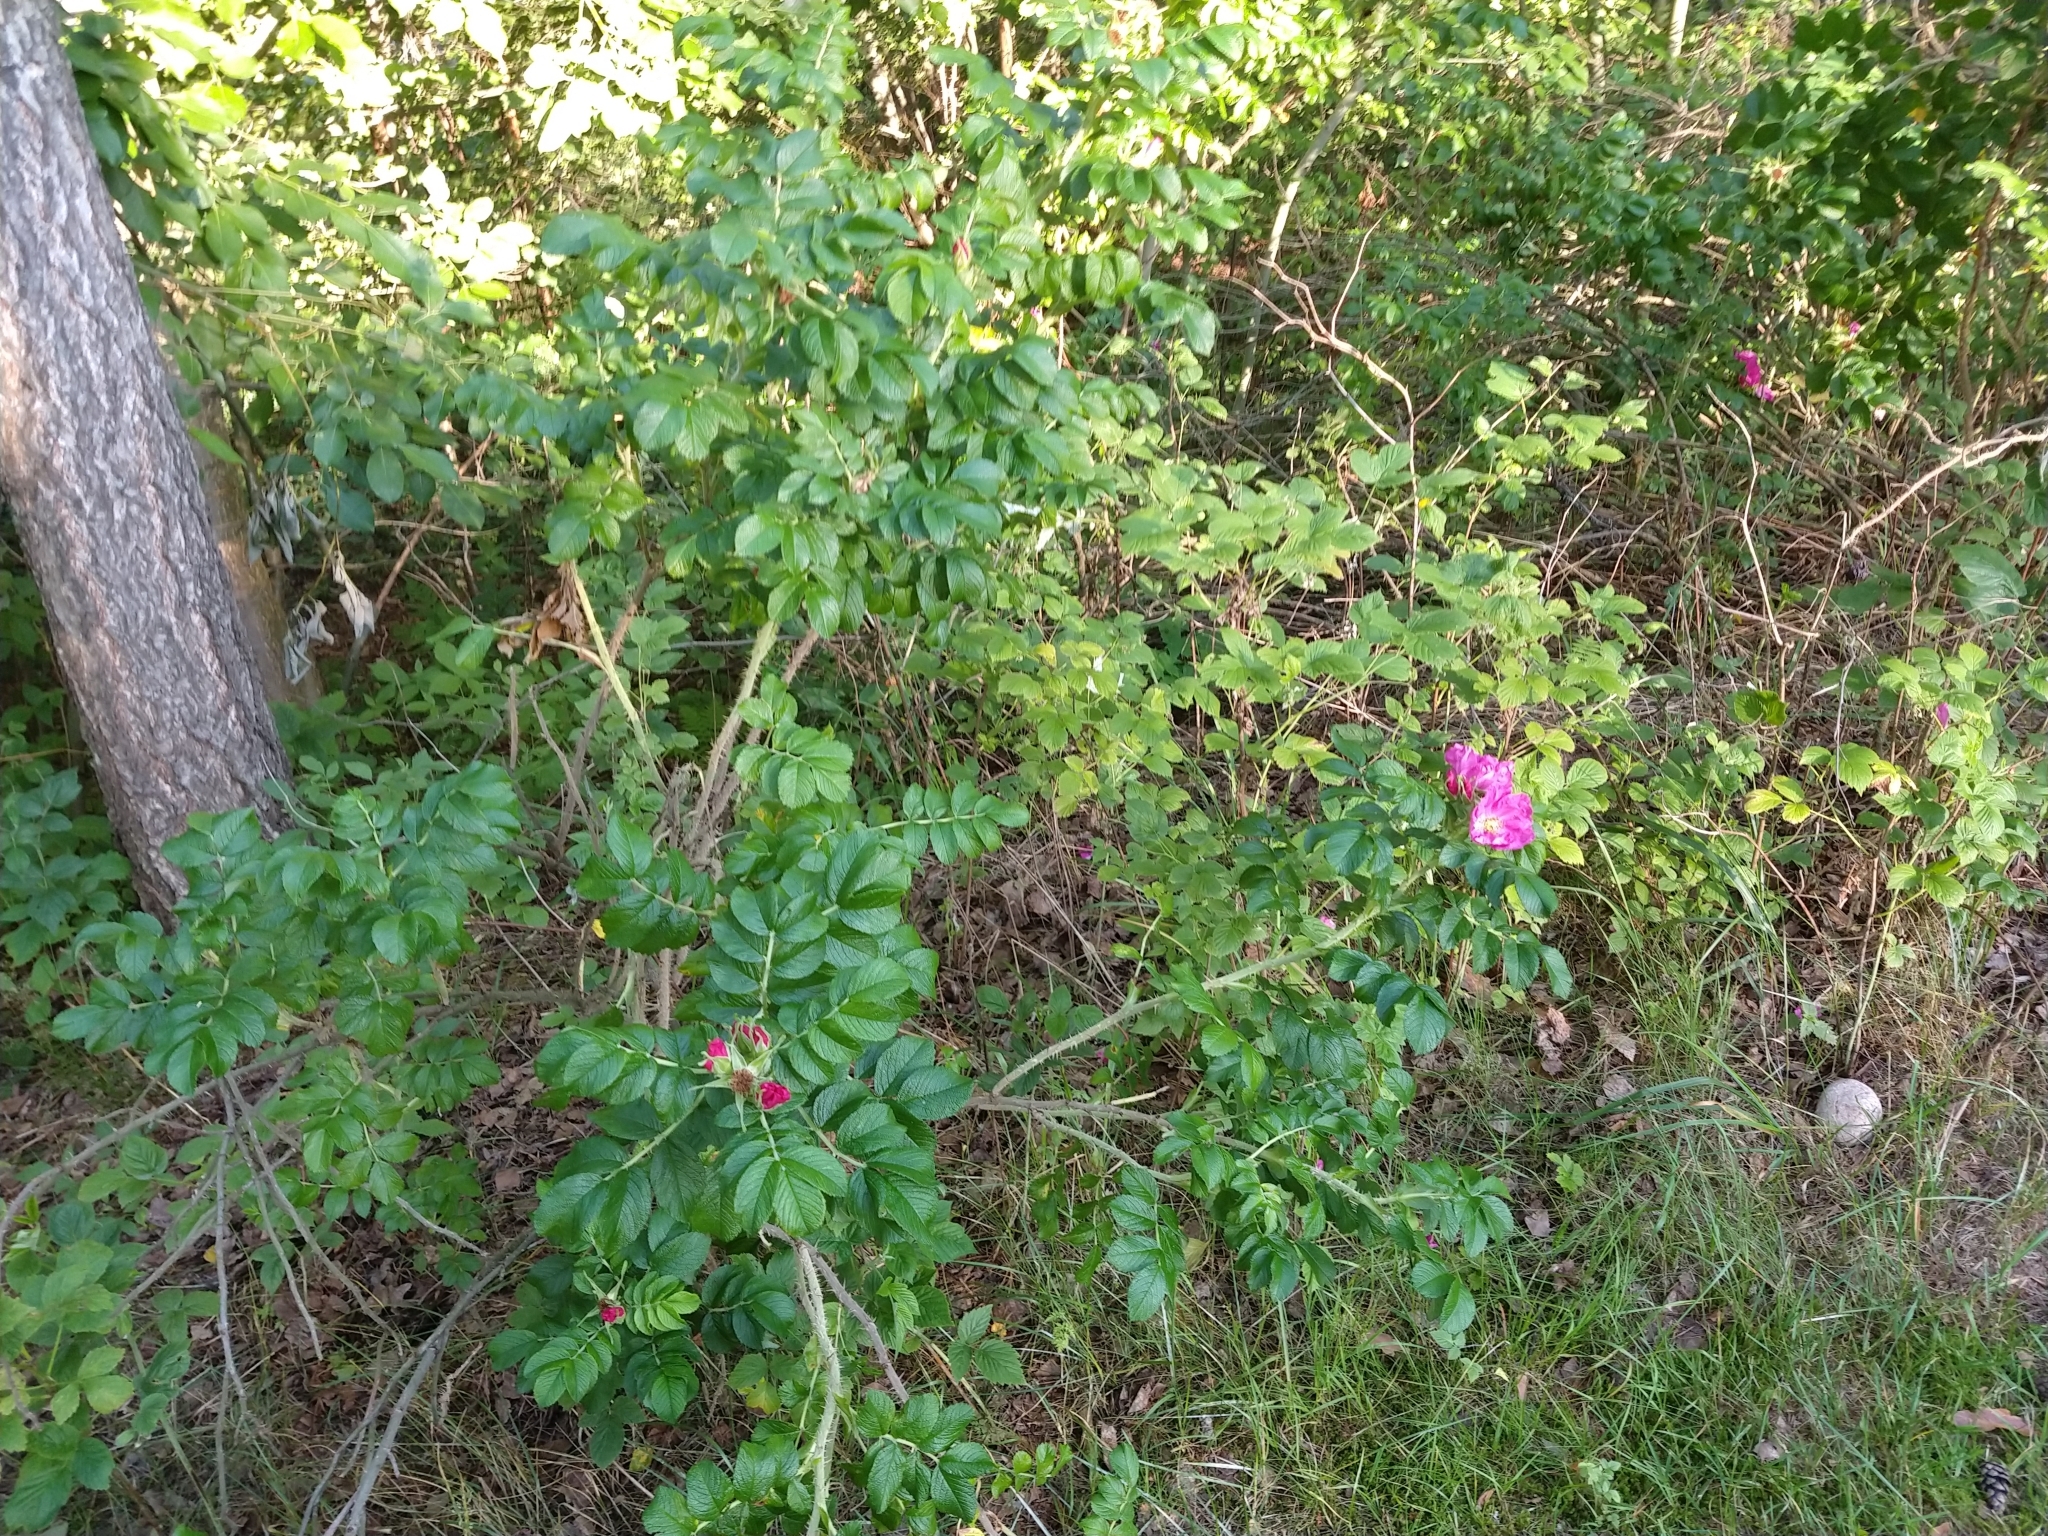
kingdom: Plantae
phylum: Tracheophyta
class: Magnoliopsida
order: Rosales
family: Rosaceae
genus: Rosa
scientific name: Rosa rugosa
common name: Japanese rose
